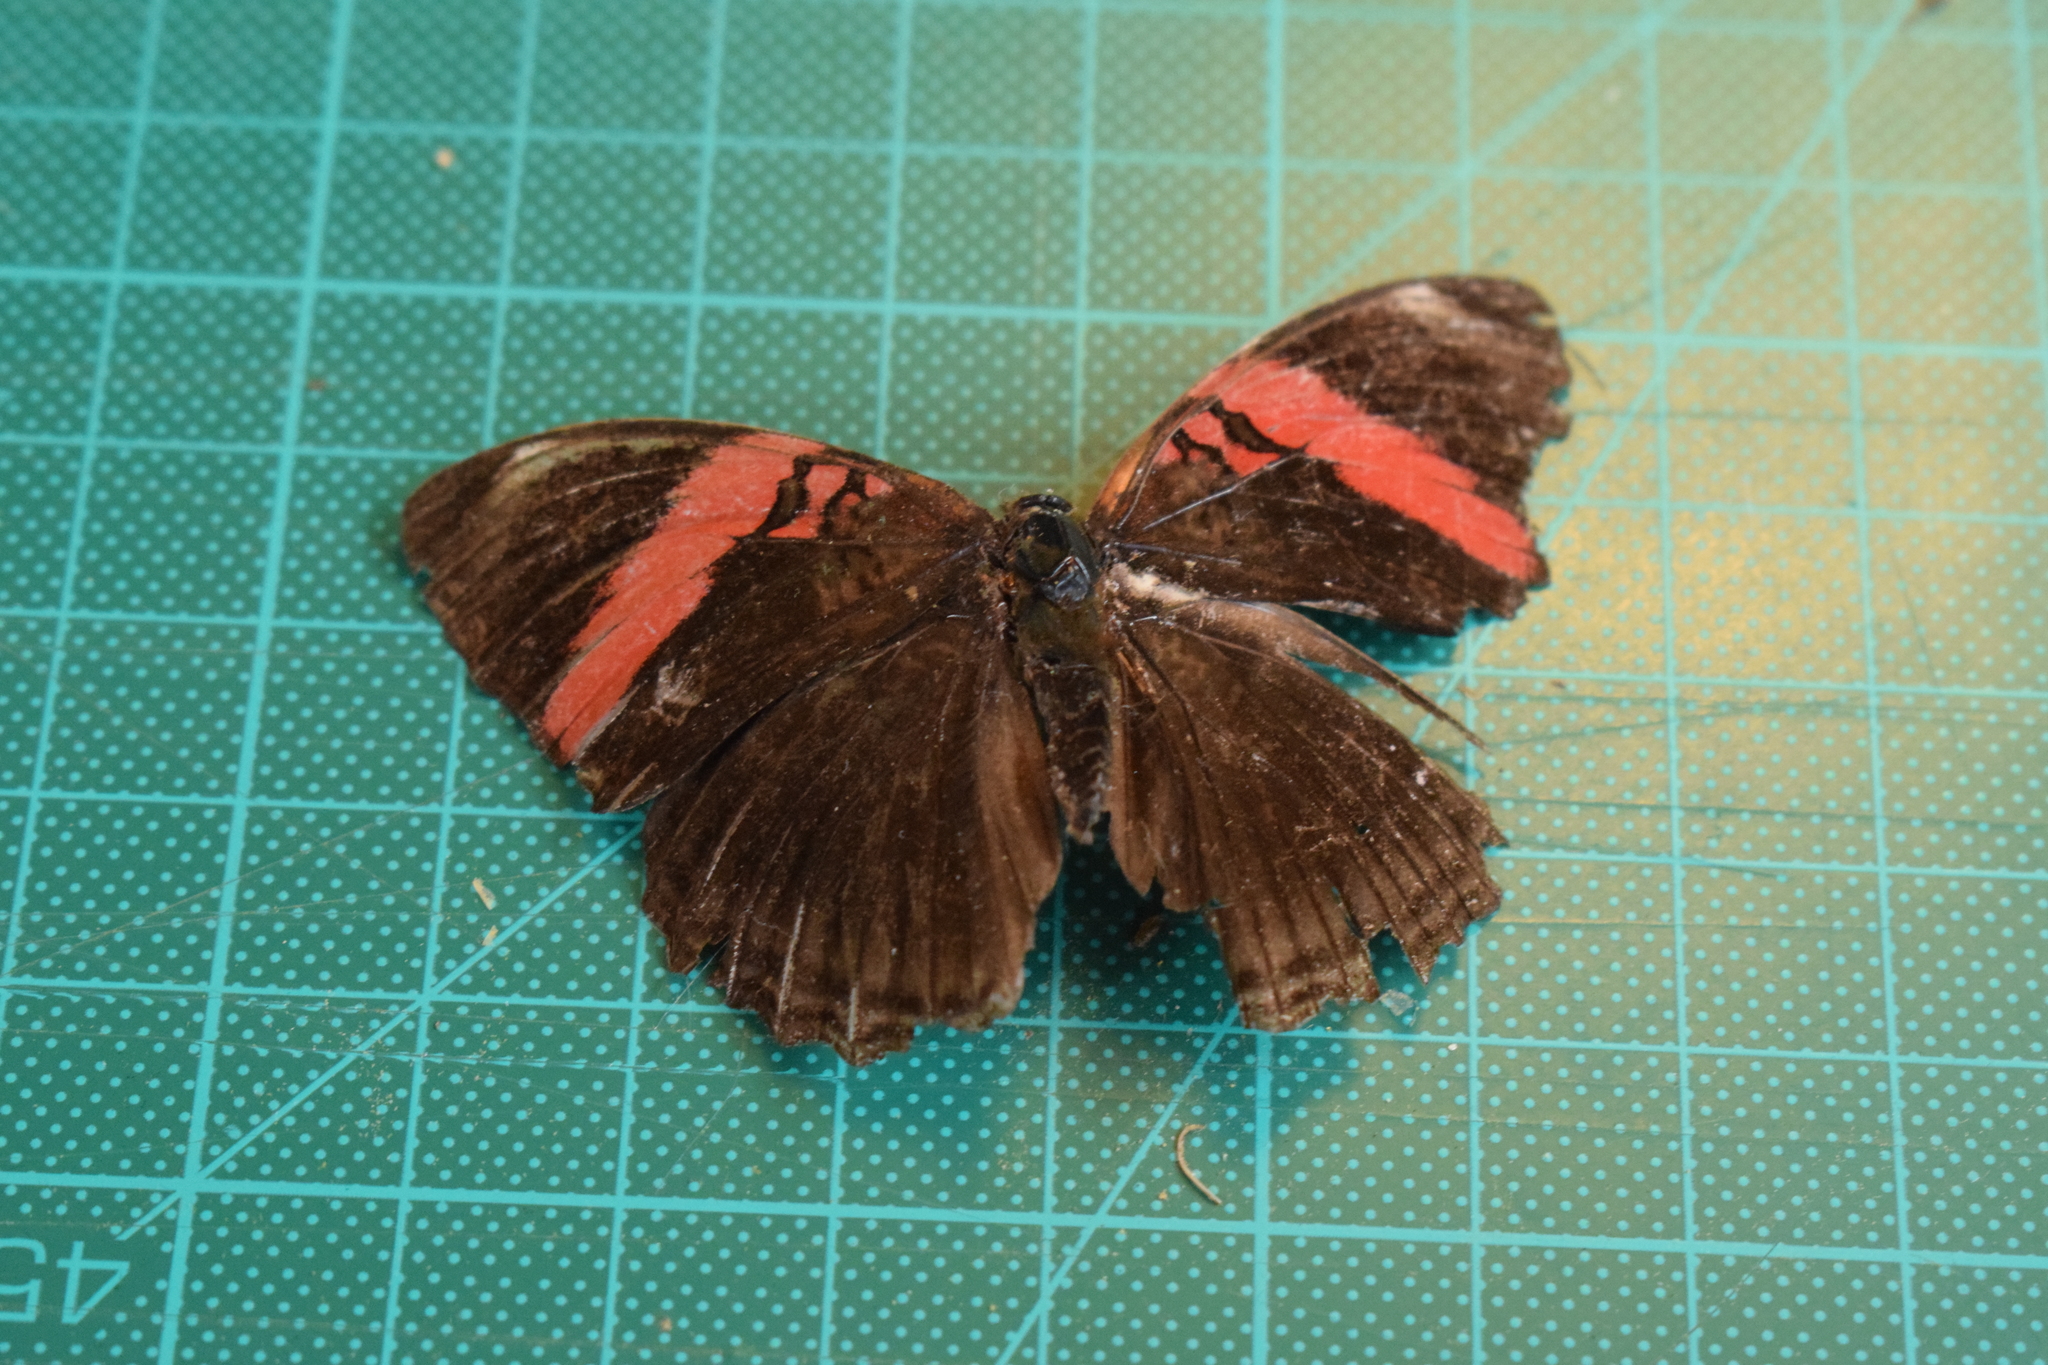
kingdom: Animalia
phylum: Arthropoda
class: Insecta
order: Lepidoptera
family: Nymphalidae
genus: Limenitis
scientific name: Limenitis isis
